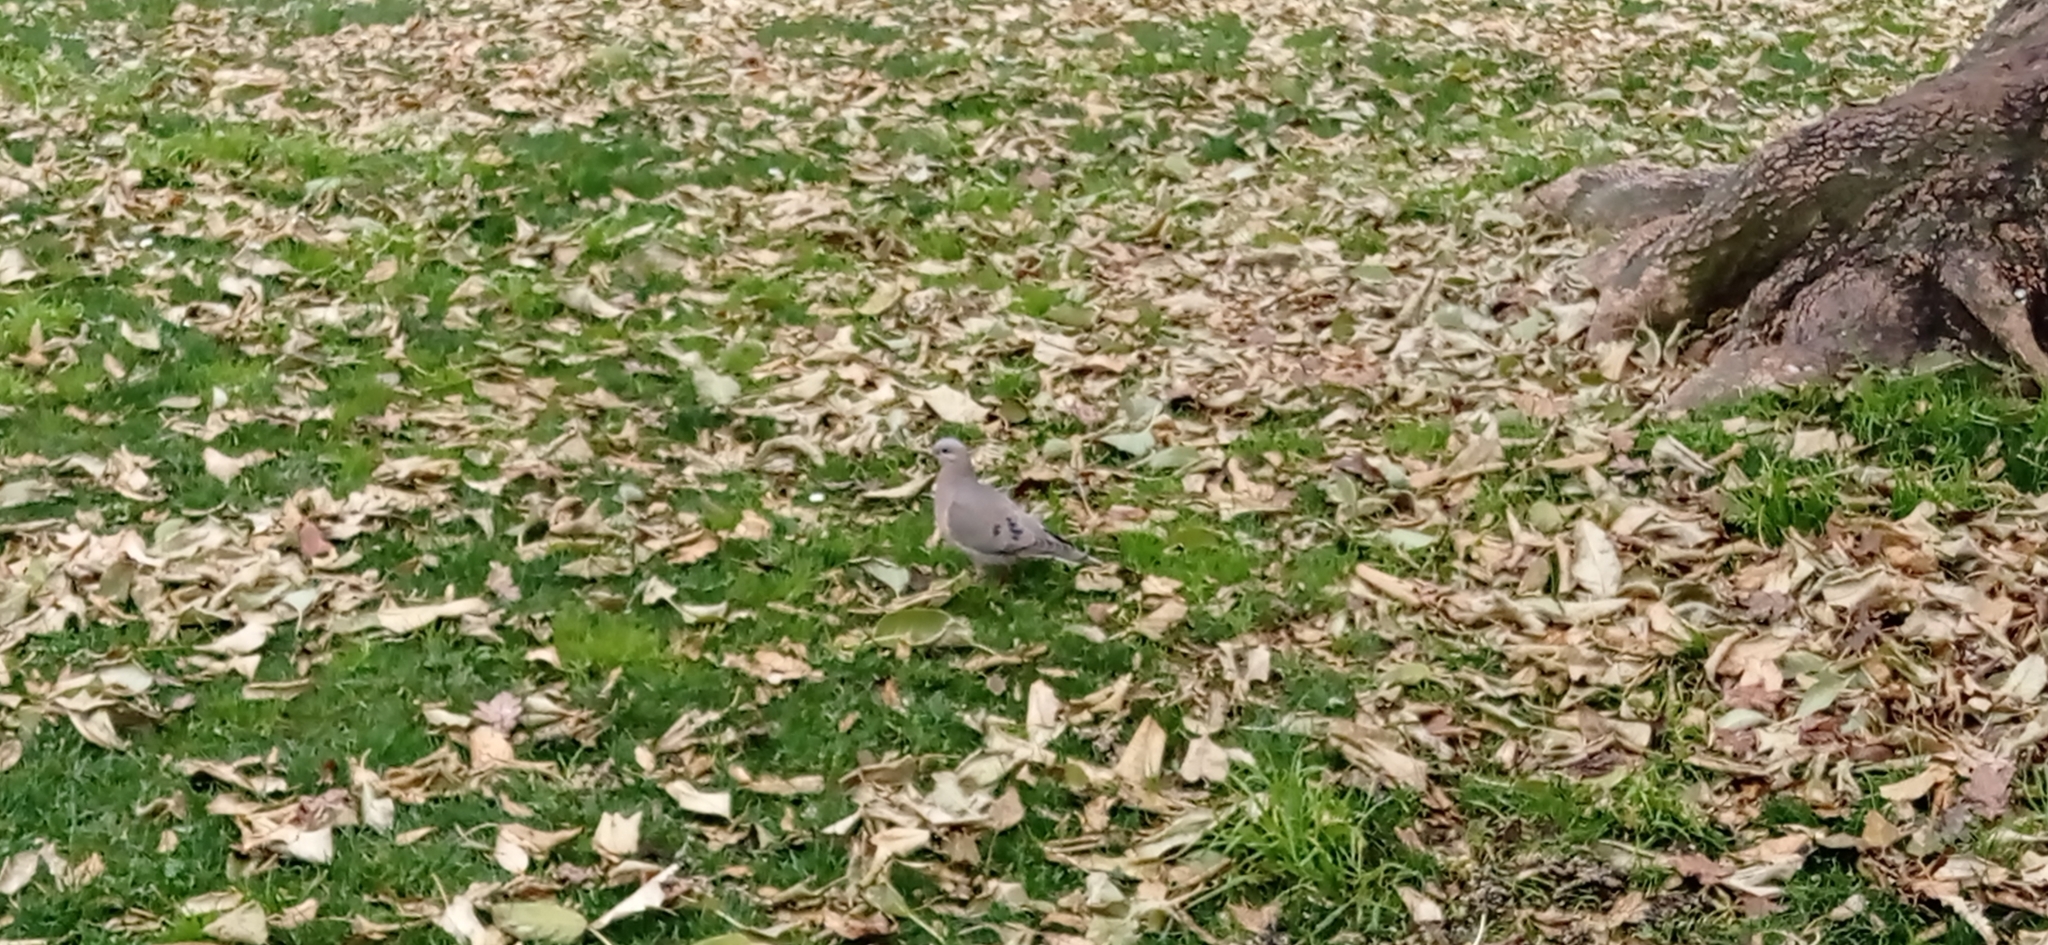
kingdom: Animalia
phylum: Chordata
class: Aves
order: Columbiformes
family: Columbidae
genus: Zenaida
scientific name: Zenaida auriculata
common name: Eared dove
